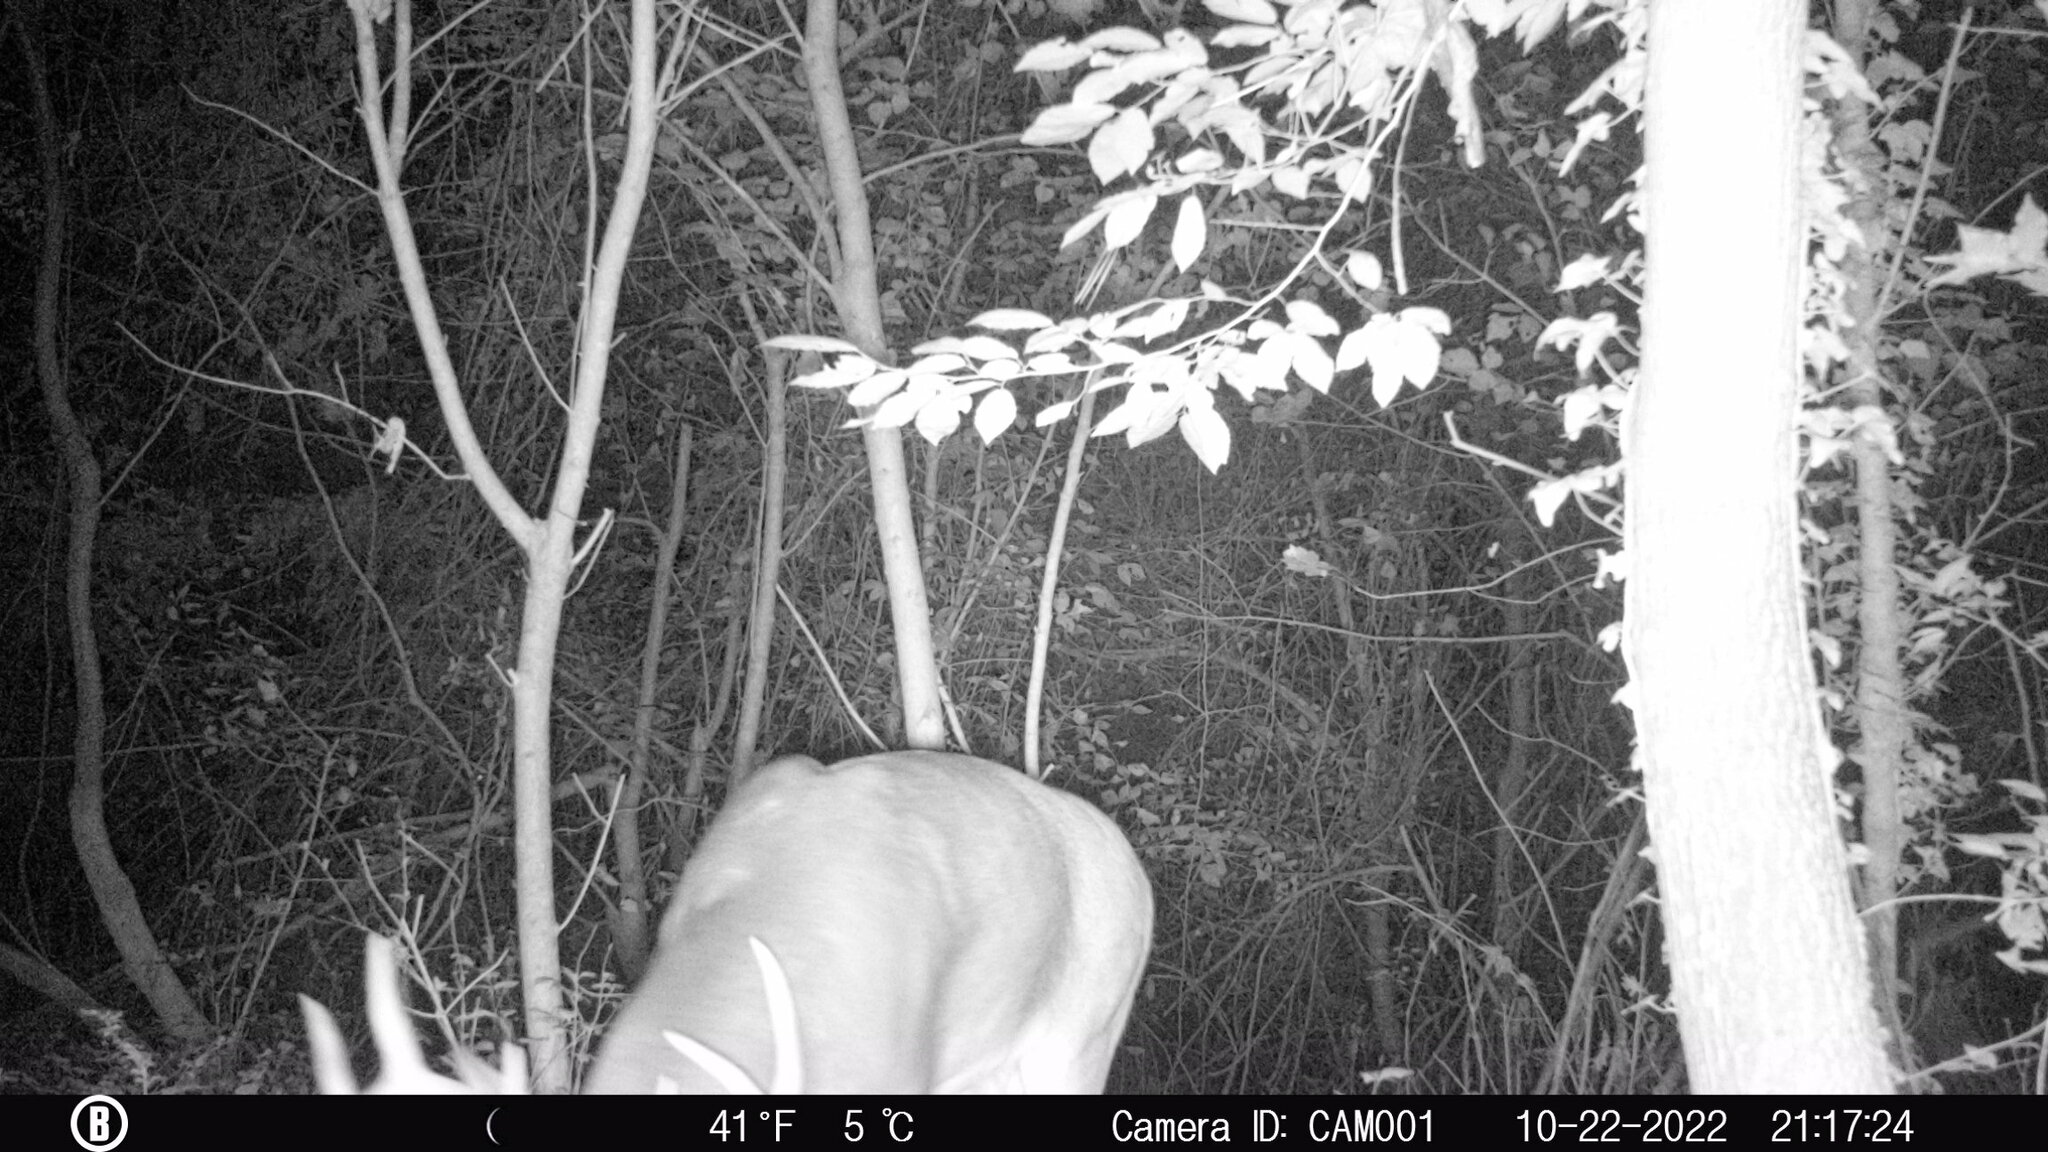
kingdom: Animalia
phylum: Chordata
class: Mammalia
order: Artiodactyla
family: Cervidae
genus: Odocoileus
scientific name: Odocoileus virginianus
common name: White-tailed deer
